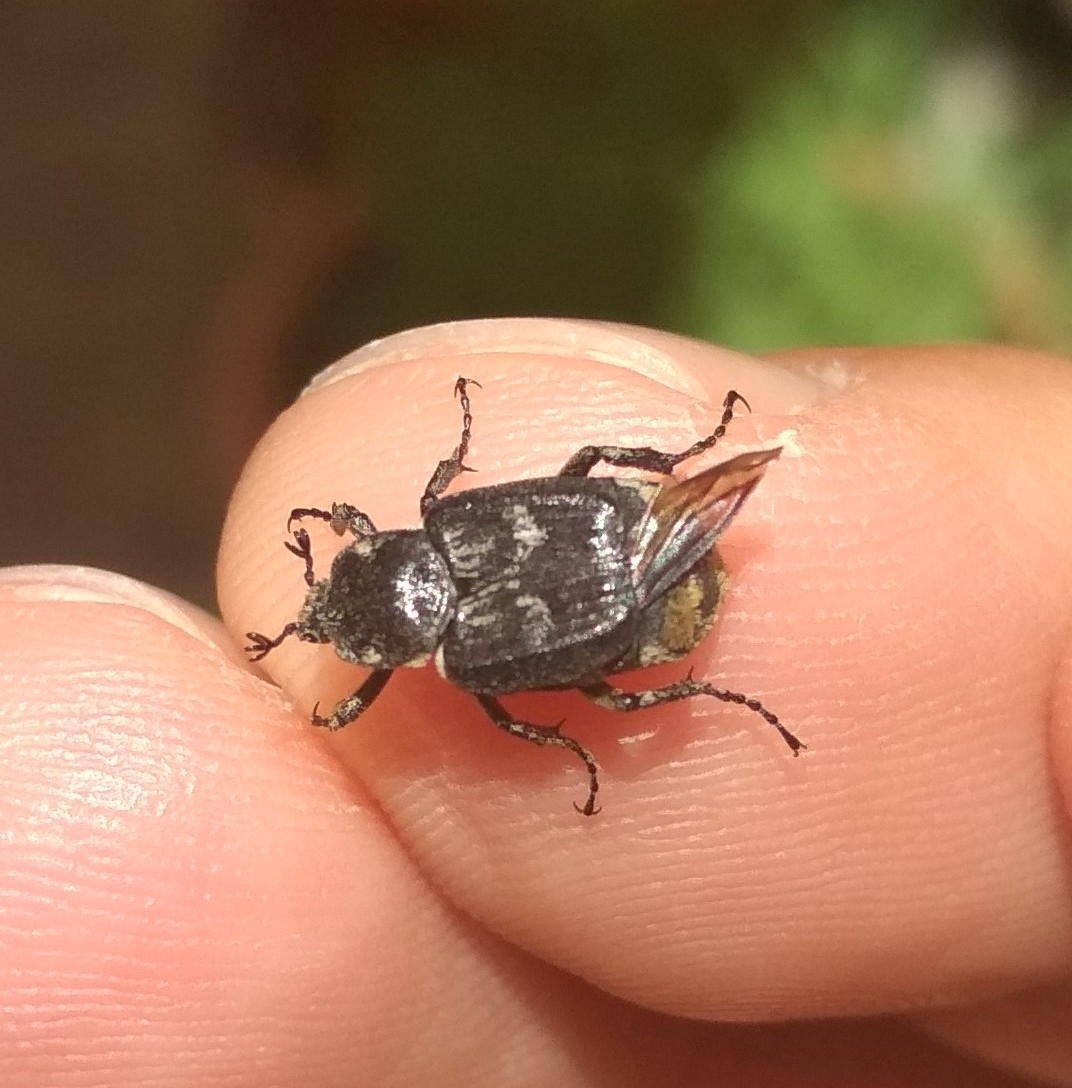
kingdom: Animalia
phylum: Arthropoda
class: Insecta
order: Coleoptera
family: Scarabaeidae
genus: Valgus
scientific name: Valgus hemipterus
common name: Bug flower chafer
